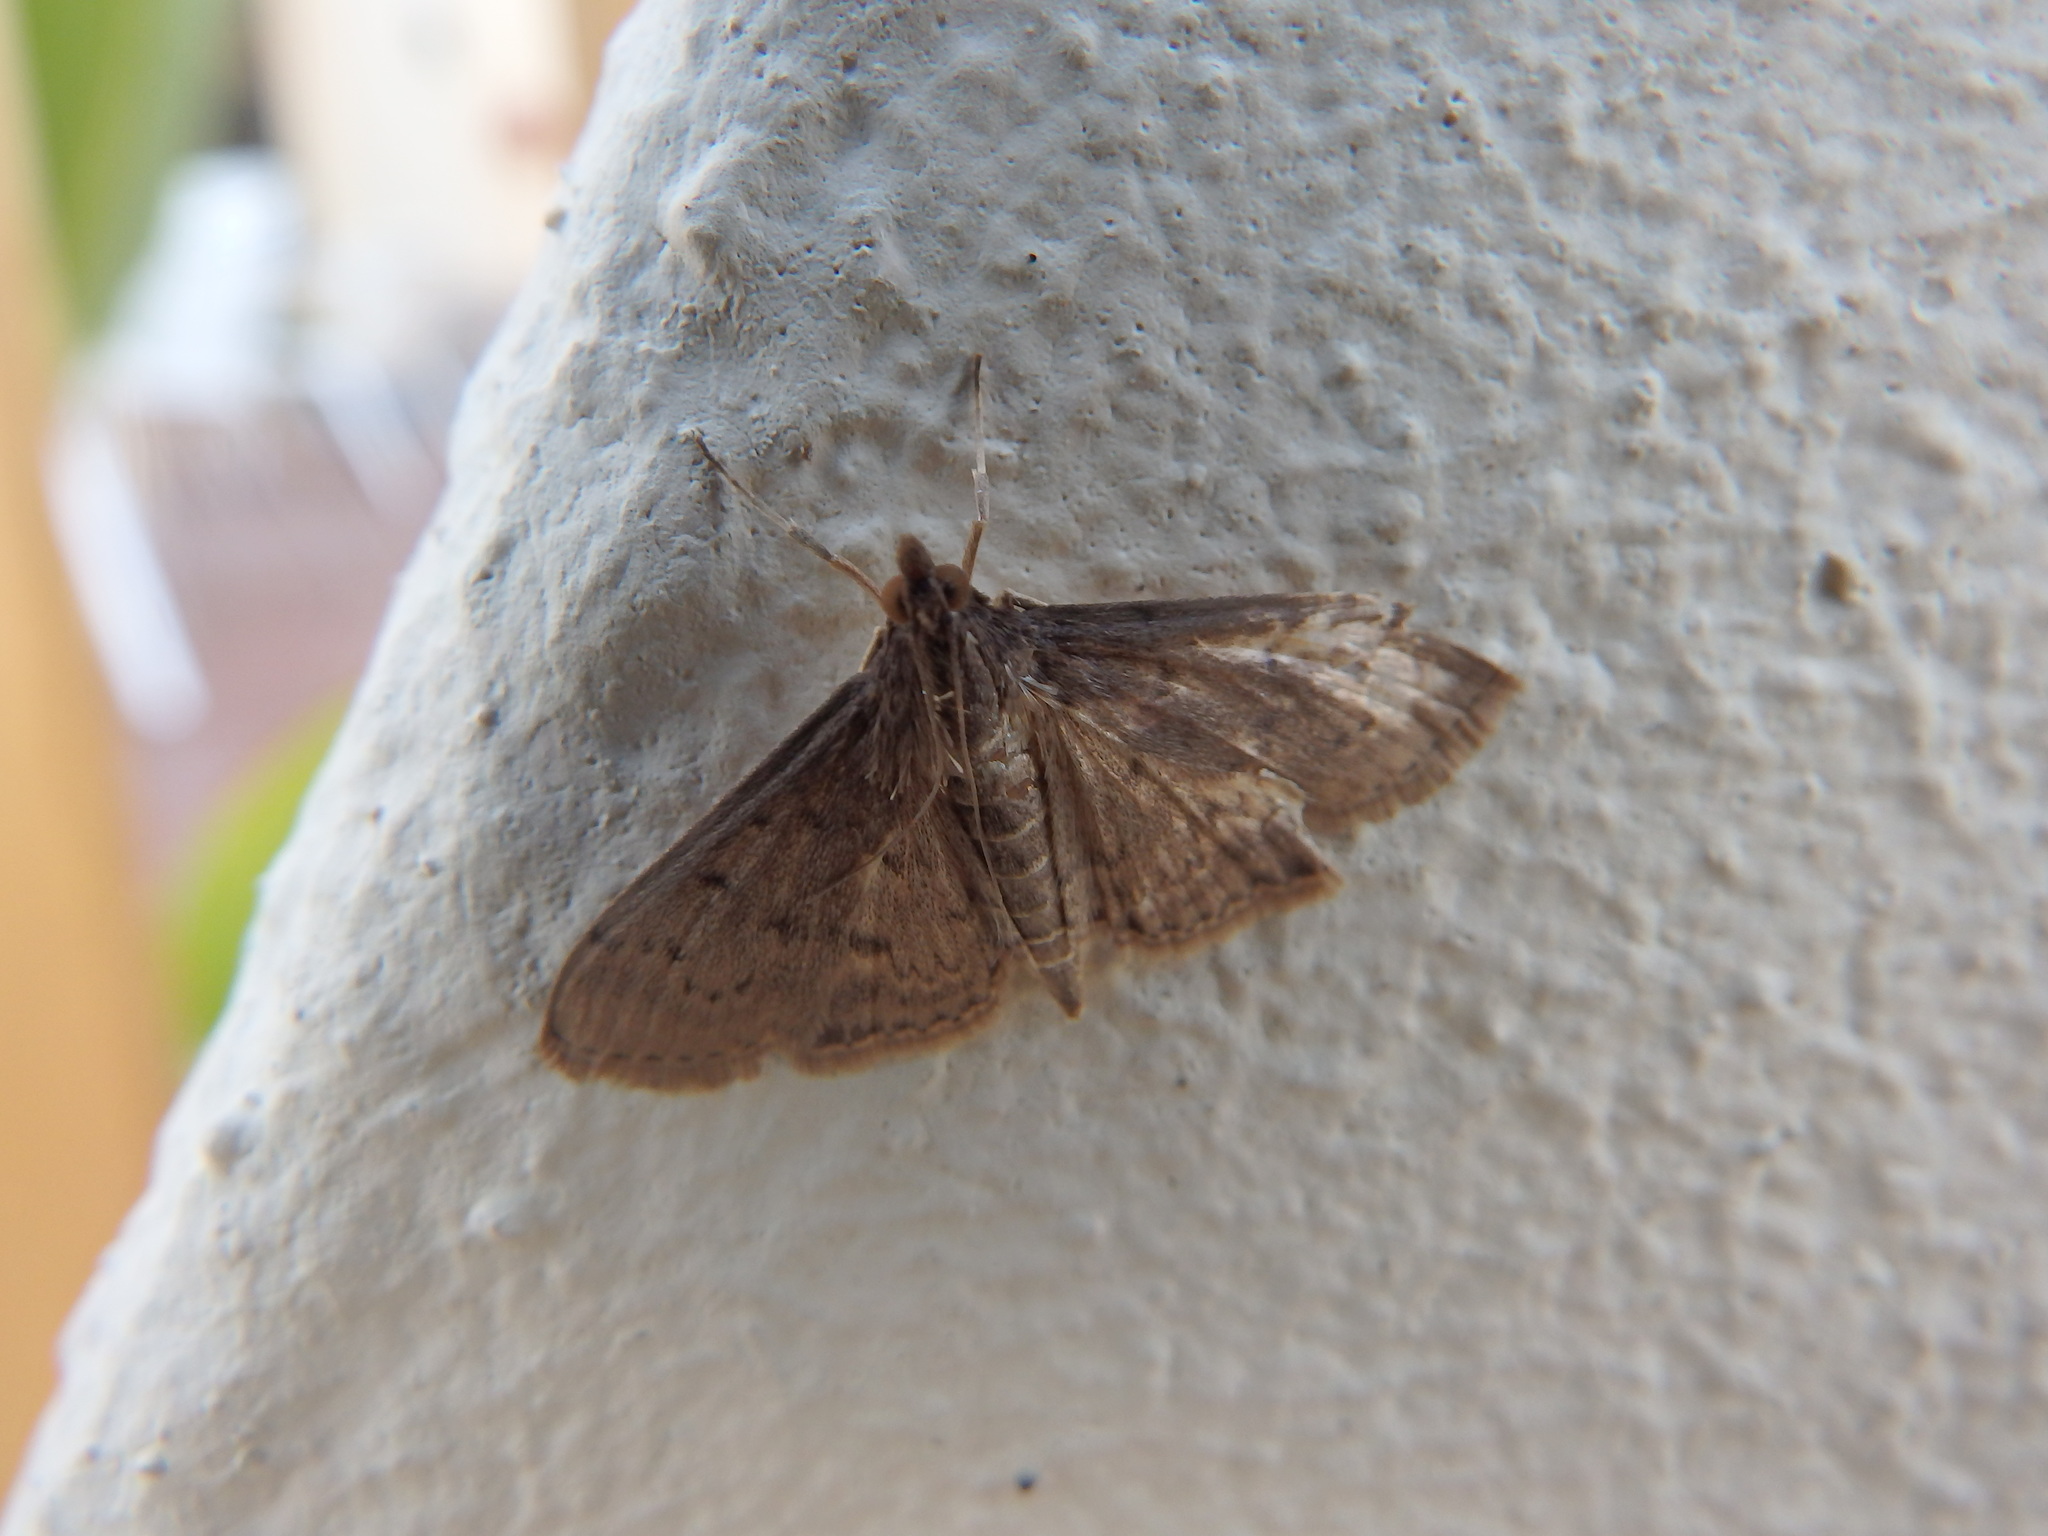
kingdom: Animalia
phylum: Arthropoda
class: Insecta
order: Lepidoptera
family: Crambidae
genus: Herpetogramma
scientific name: Herpetogramma licarsisalis
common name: Grass webworm
